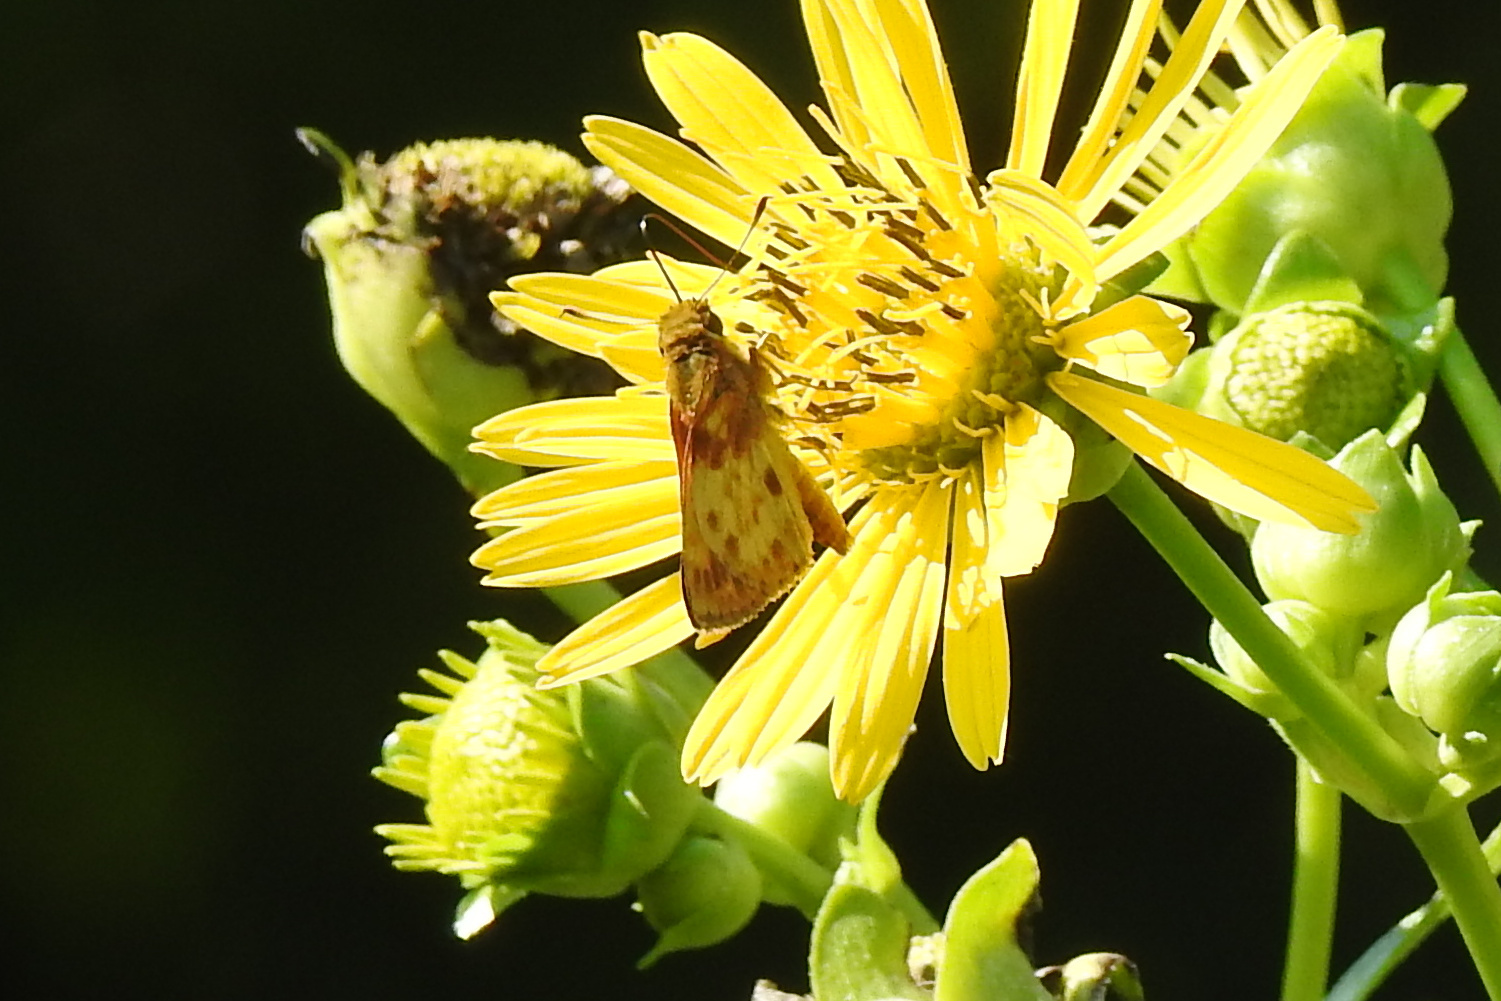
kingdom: Animalia
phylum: Arthropoda
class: Insecta
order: Lepidoptera
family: Hesperiidae
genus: Lon
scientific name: Lon zabulon
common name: Zabulon skipper
